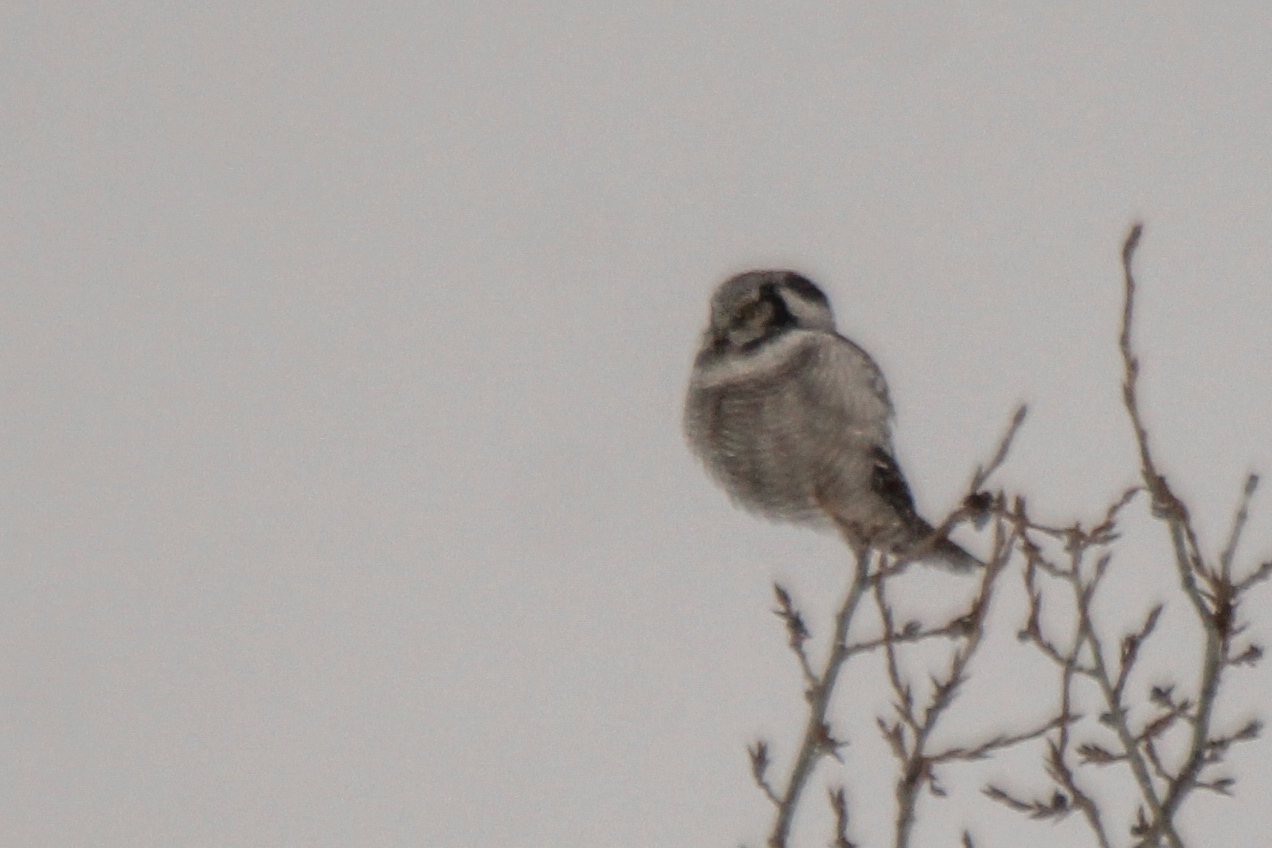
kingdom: Animalia
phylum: Chordata
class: Aves
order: Strigiformes
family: Strigidae
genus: Surnia
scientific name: Surnia ulula
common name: Northern hawk-owl
